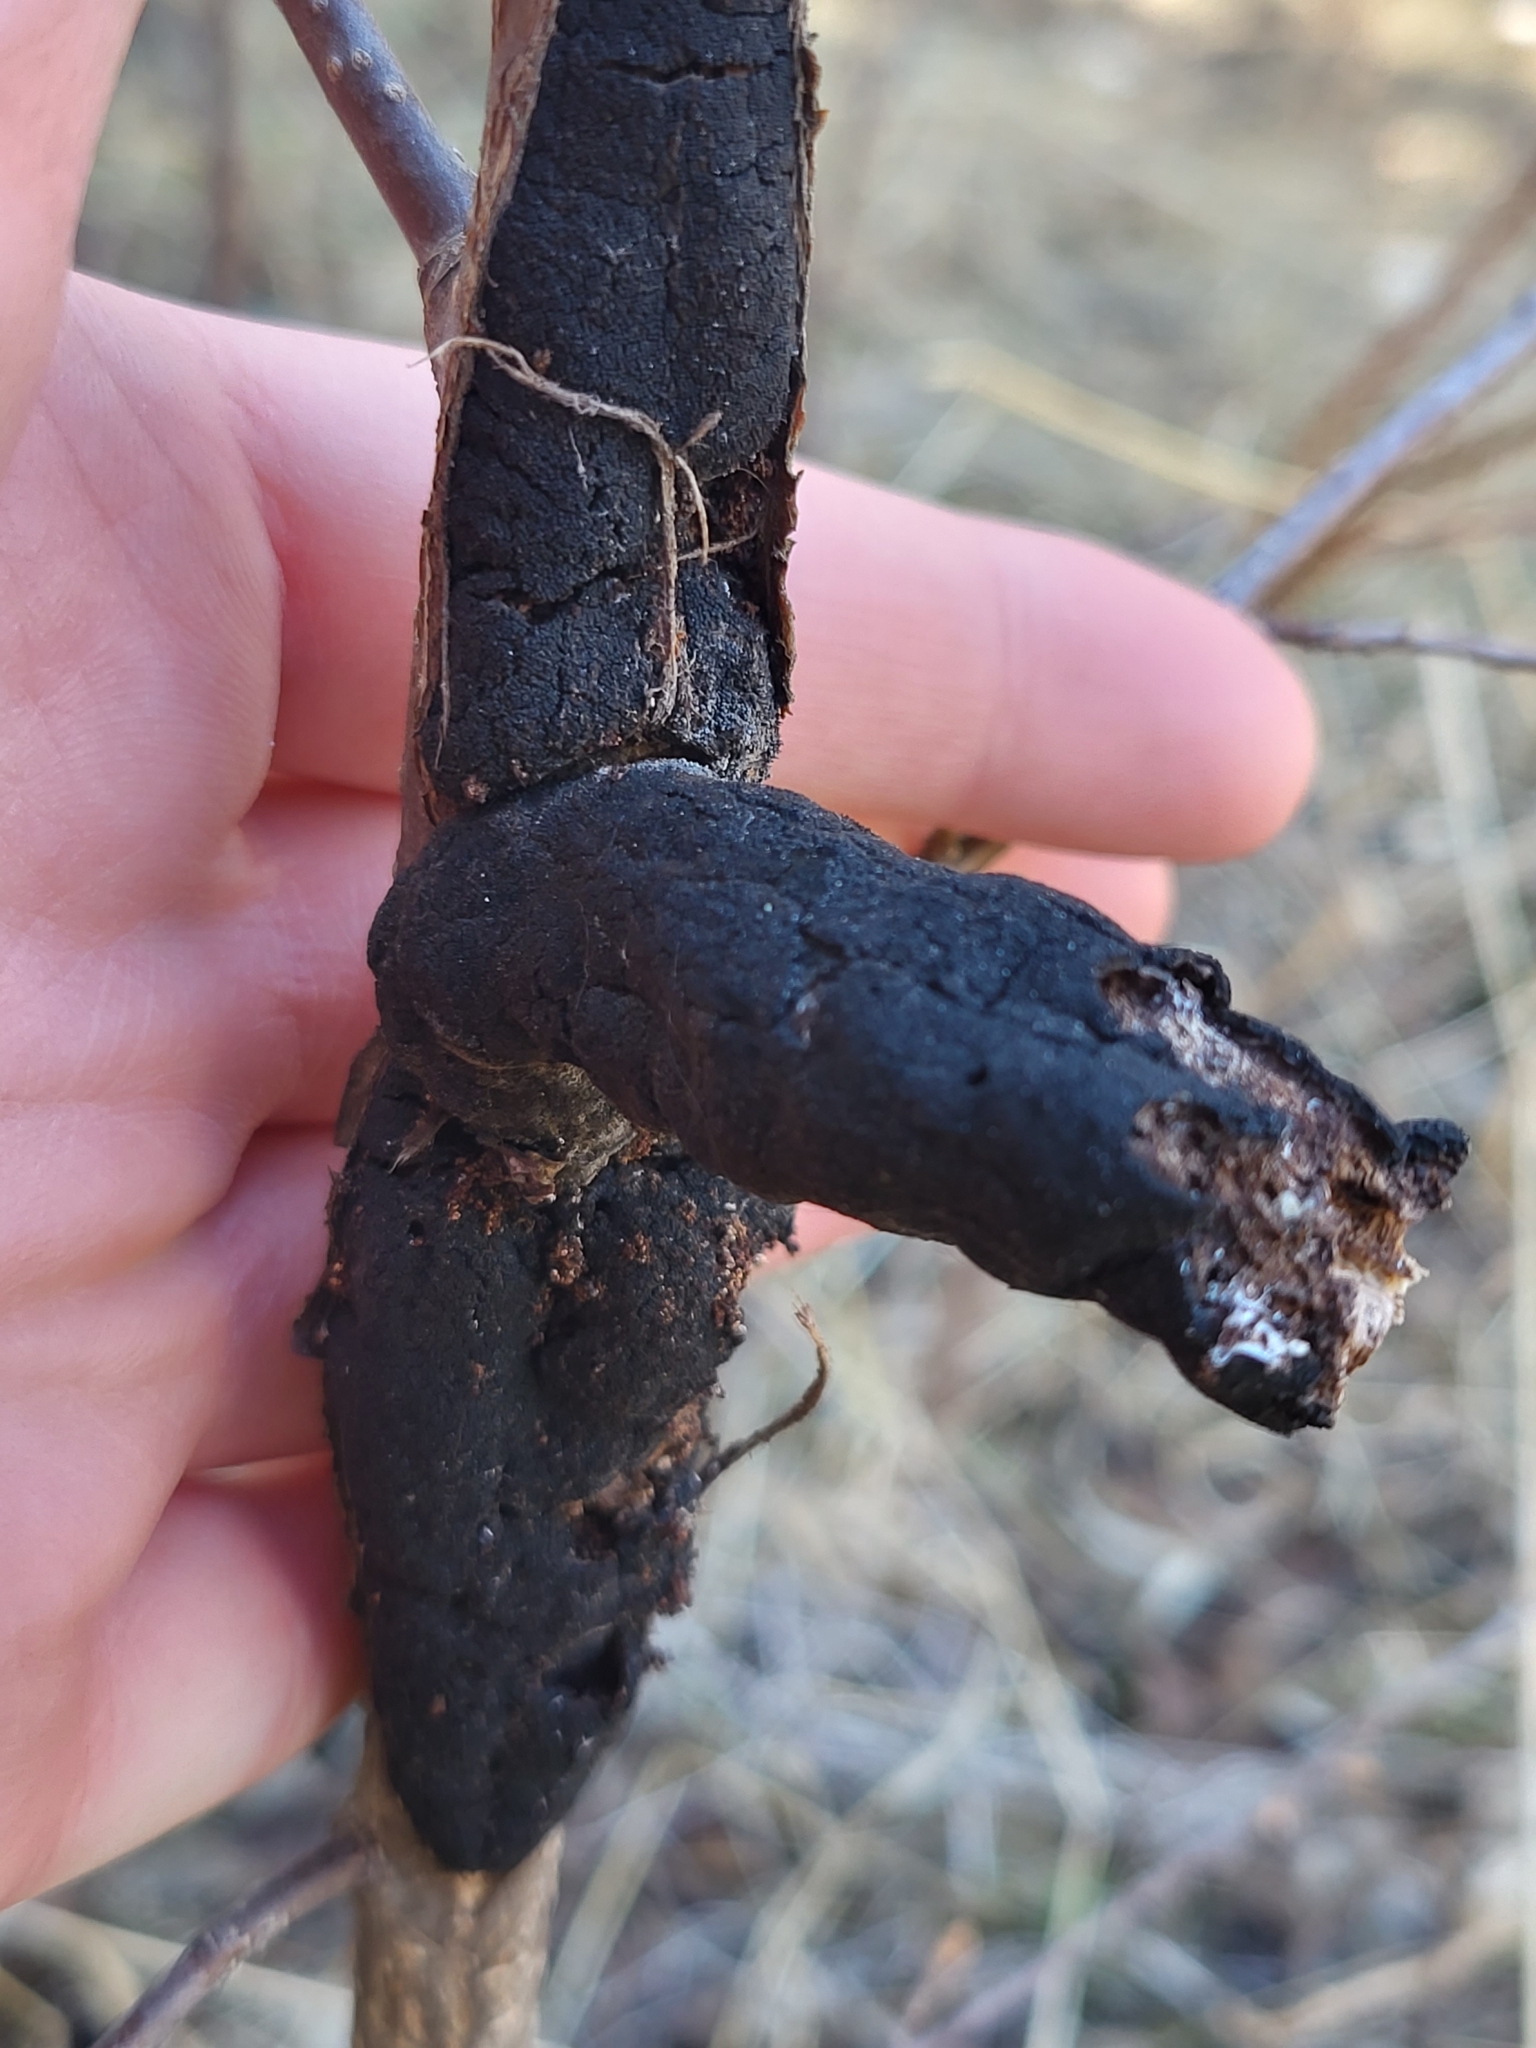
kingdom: Fungi
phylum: Ascomycota
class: Dothideomycetes
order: Venturiales
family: Venturiaceae
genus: Apiosporina
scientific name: Apiosporina morbosa
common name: Black knot
